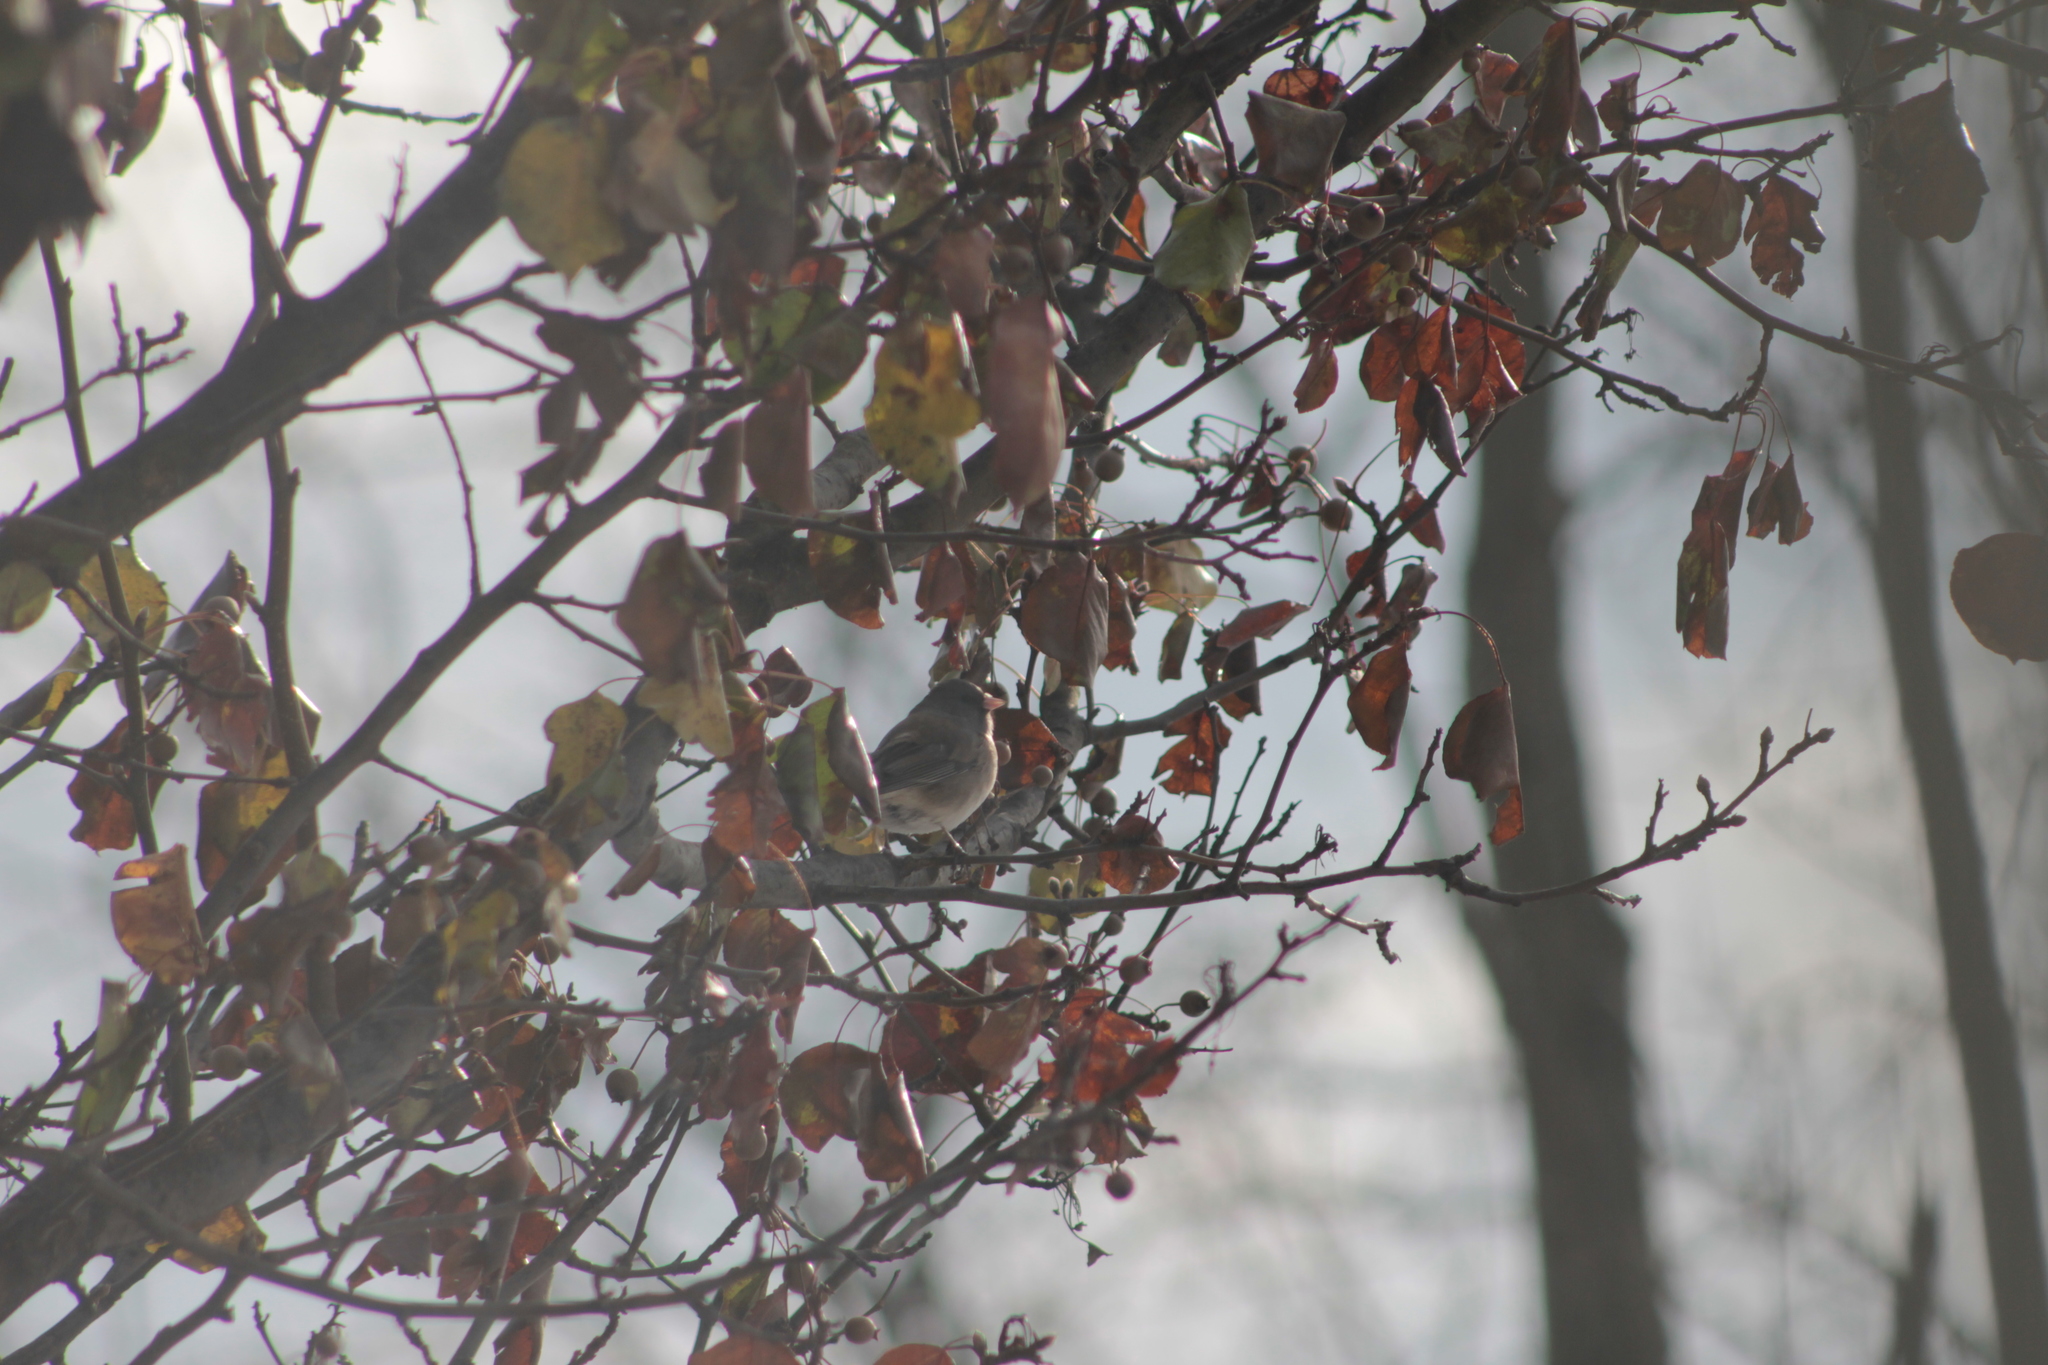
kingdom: Animalia
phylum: Chordata
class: Aves
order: Passeriformes
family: Passerellidae
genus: Junco
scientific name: Junco hyemalis
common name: Dark-eyed junco
